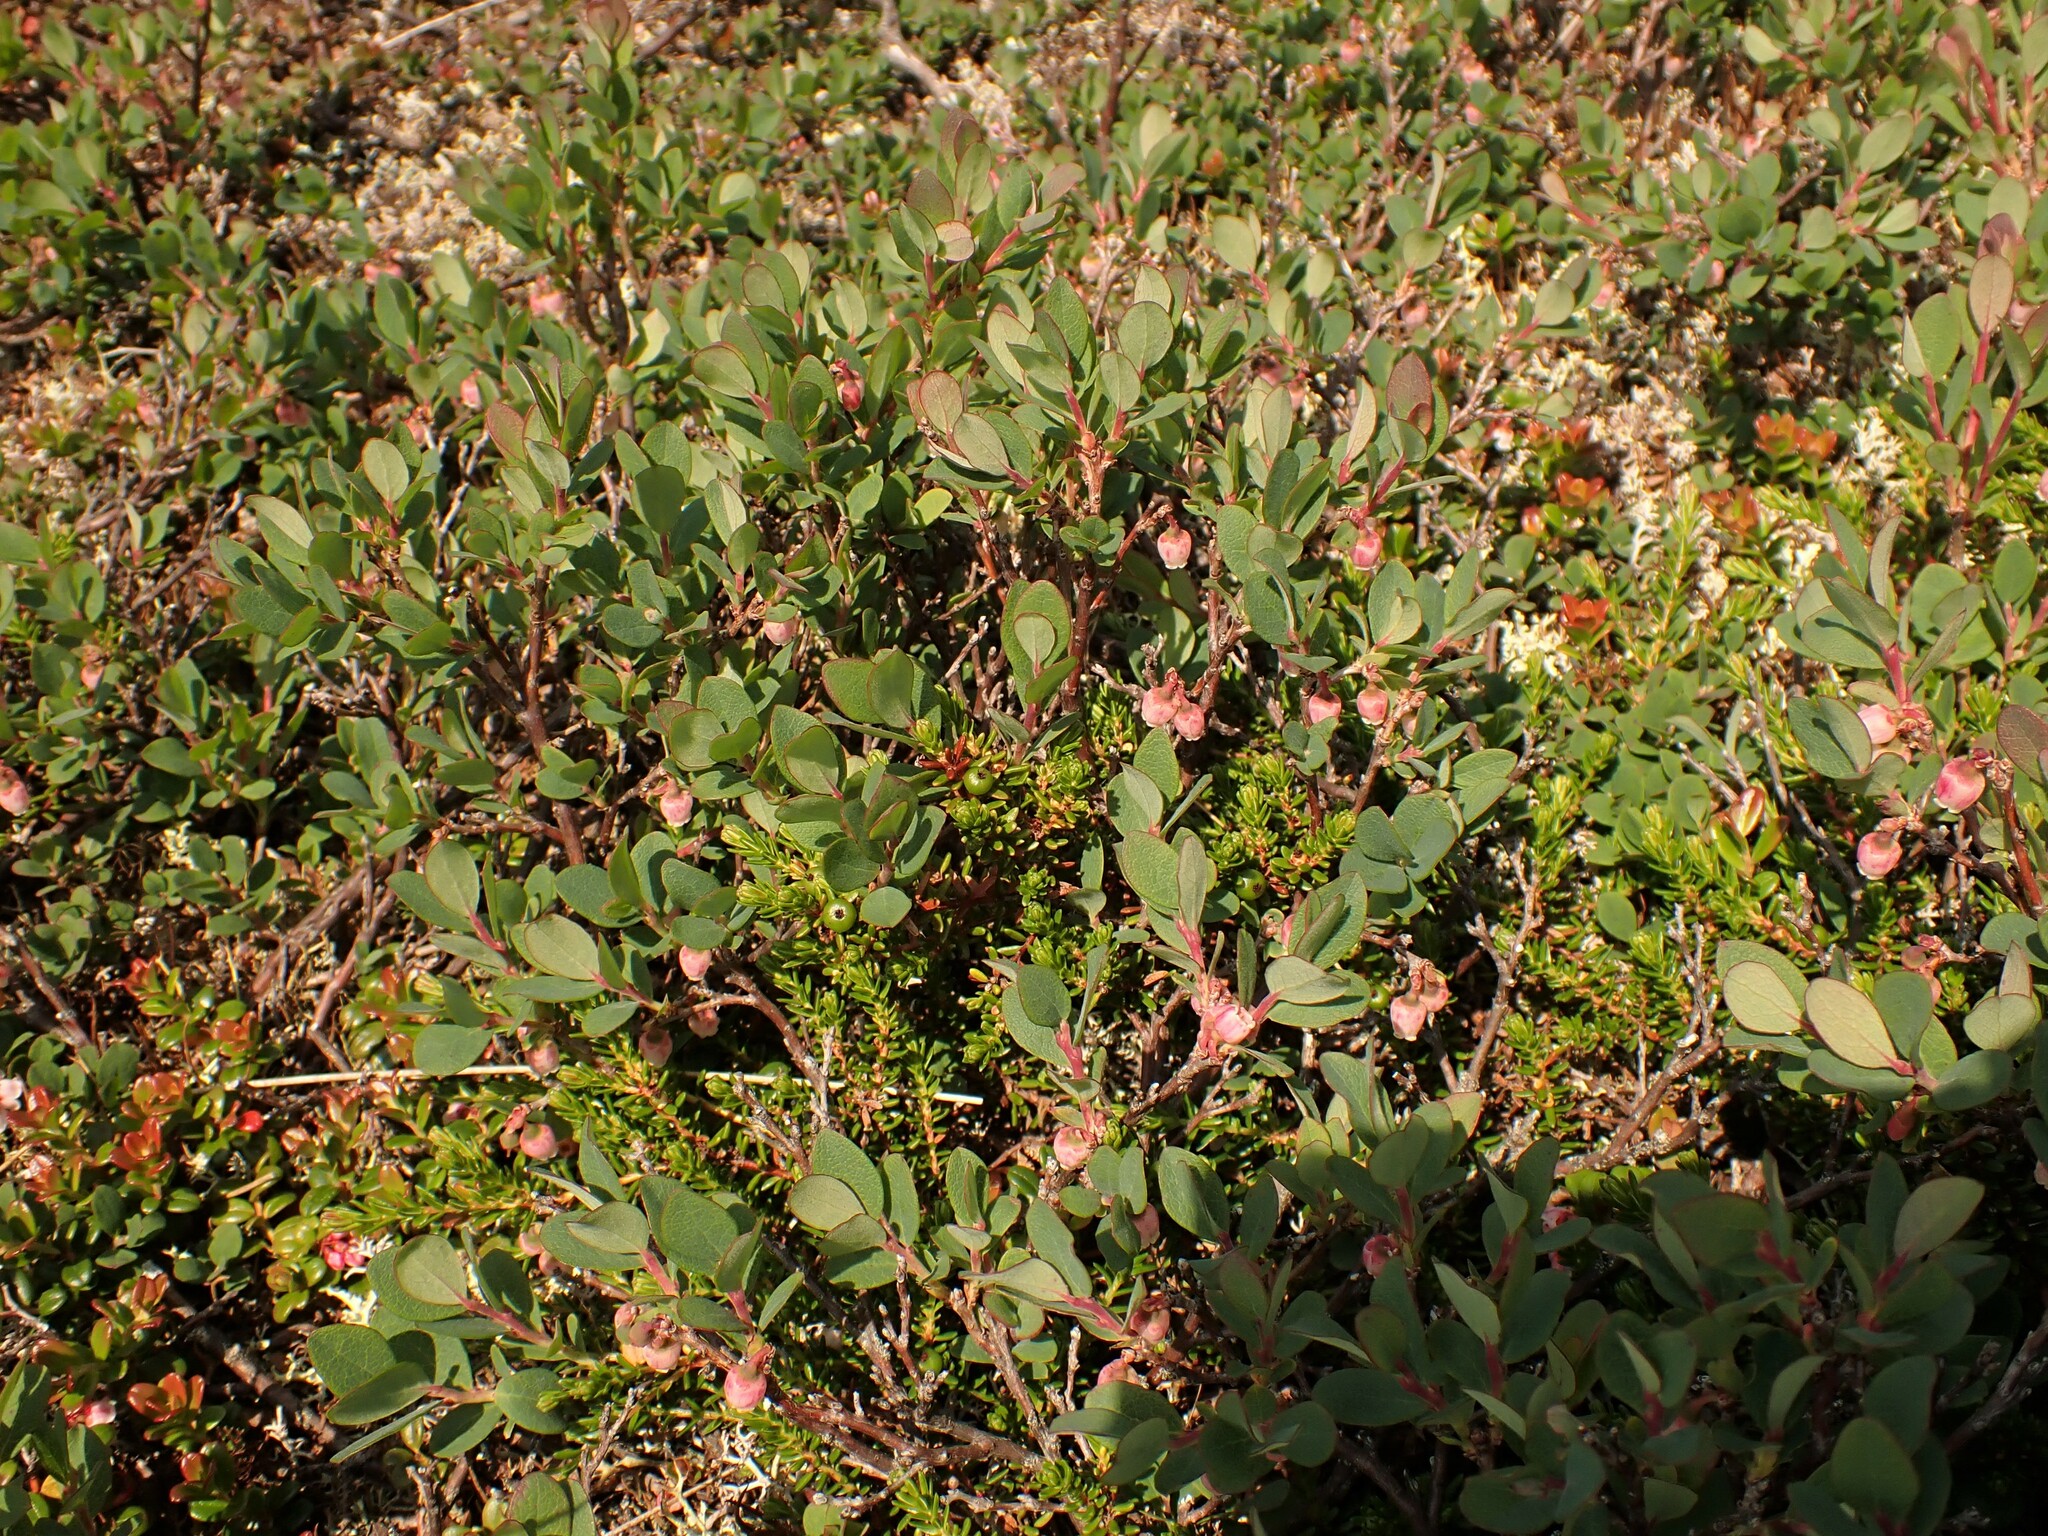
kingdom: Plantae
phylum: Tracheophyta
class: Magnoliopsida
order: Ericales
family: Ericaceae
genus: Vaccinium
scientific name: Vaccinium uliginosum
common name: Bog bilberry
